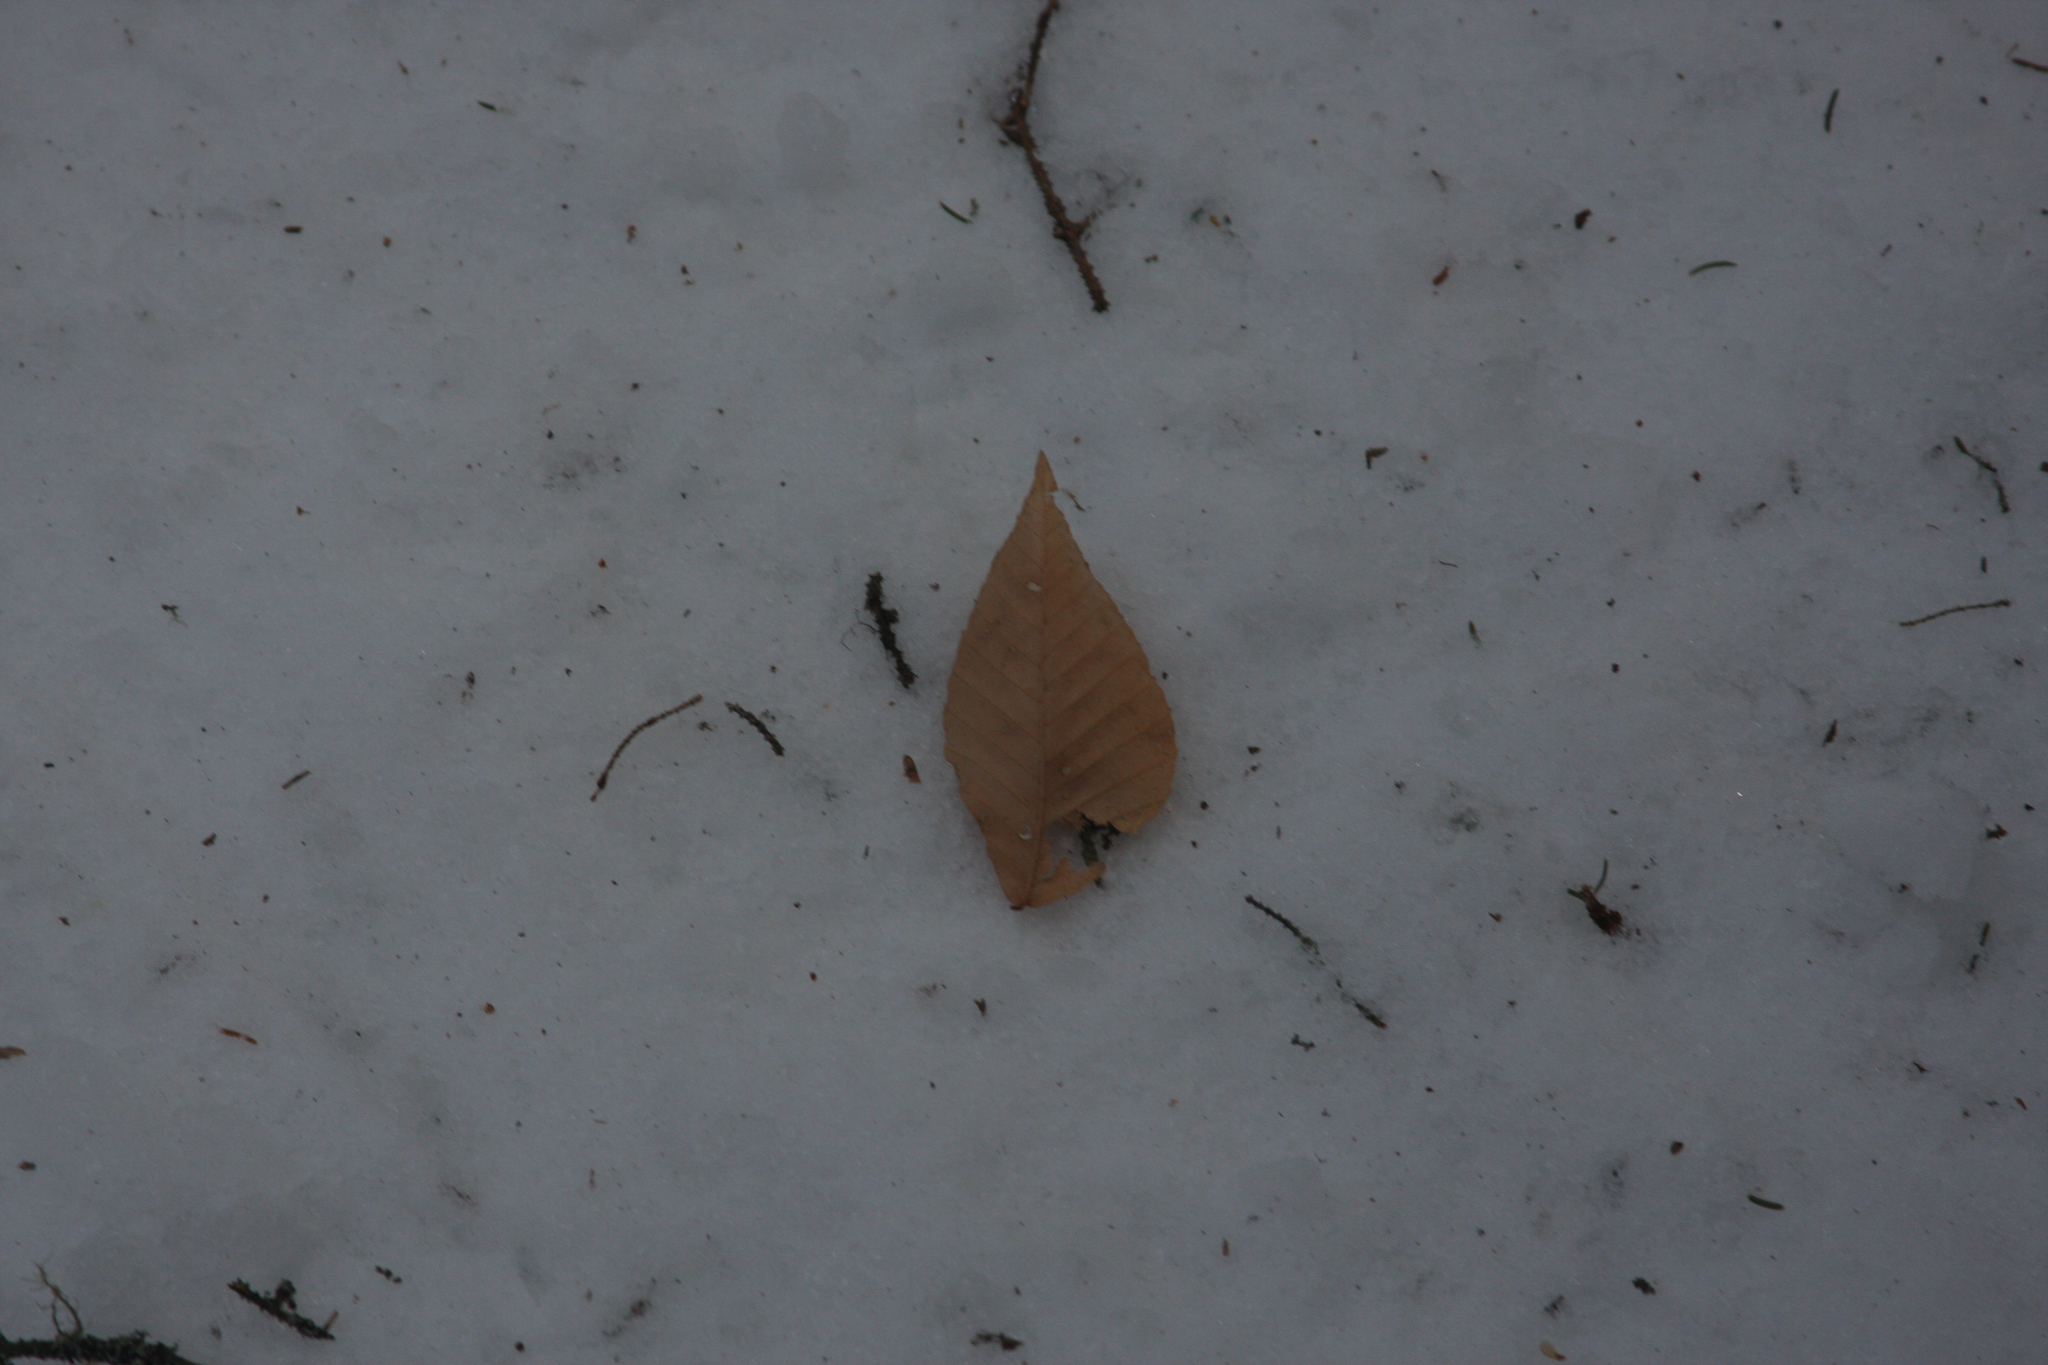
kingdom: Plantae
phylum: Tracheophyta
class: Magnoliopsida
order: Fagales
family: Fagaceae
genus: Fagus
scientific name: Fagus grandifolia
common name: American beech
